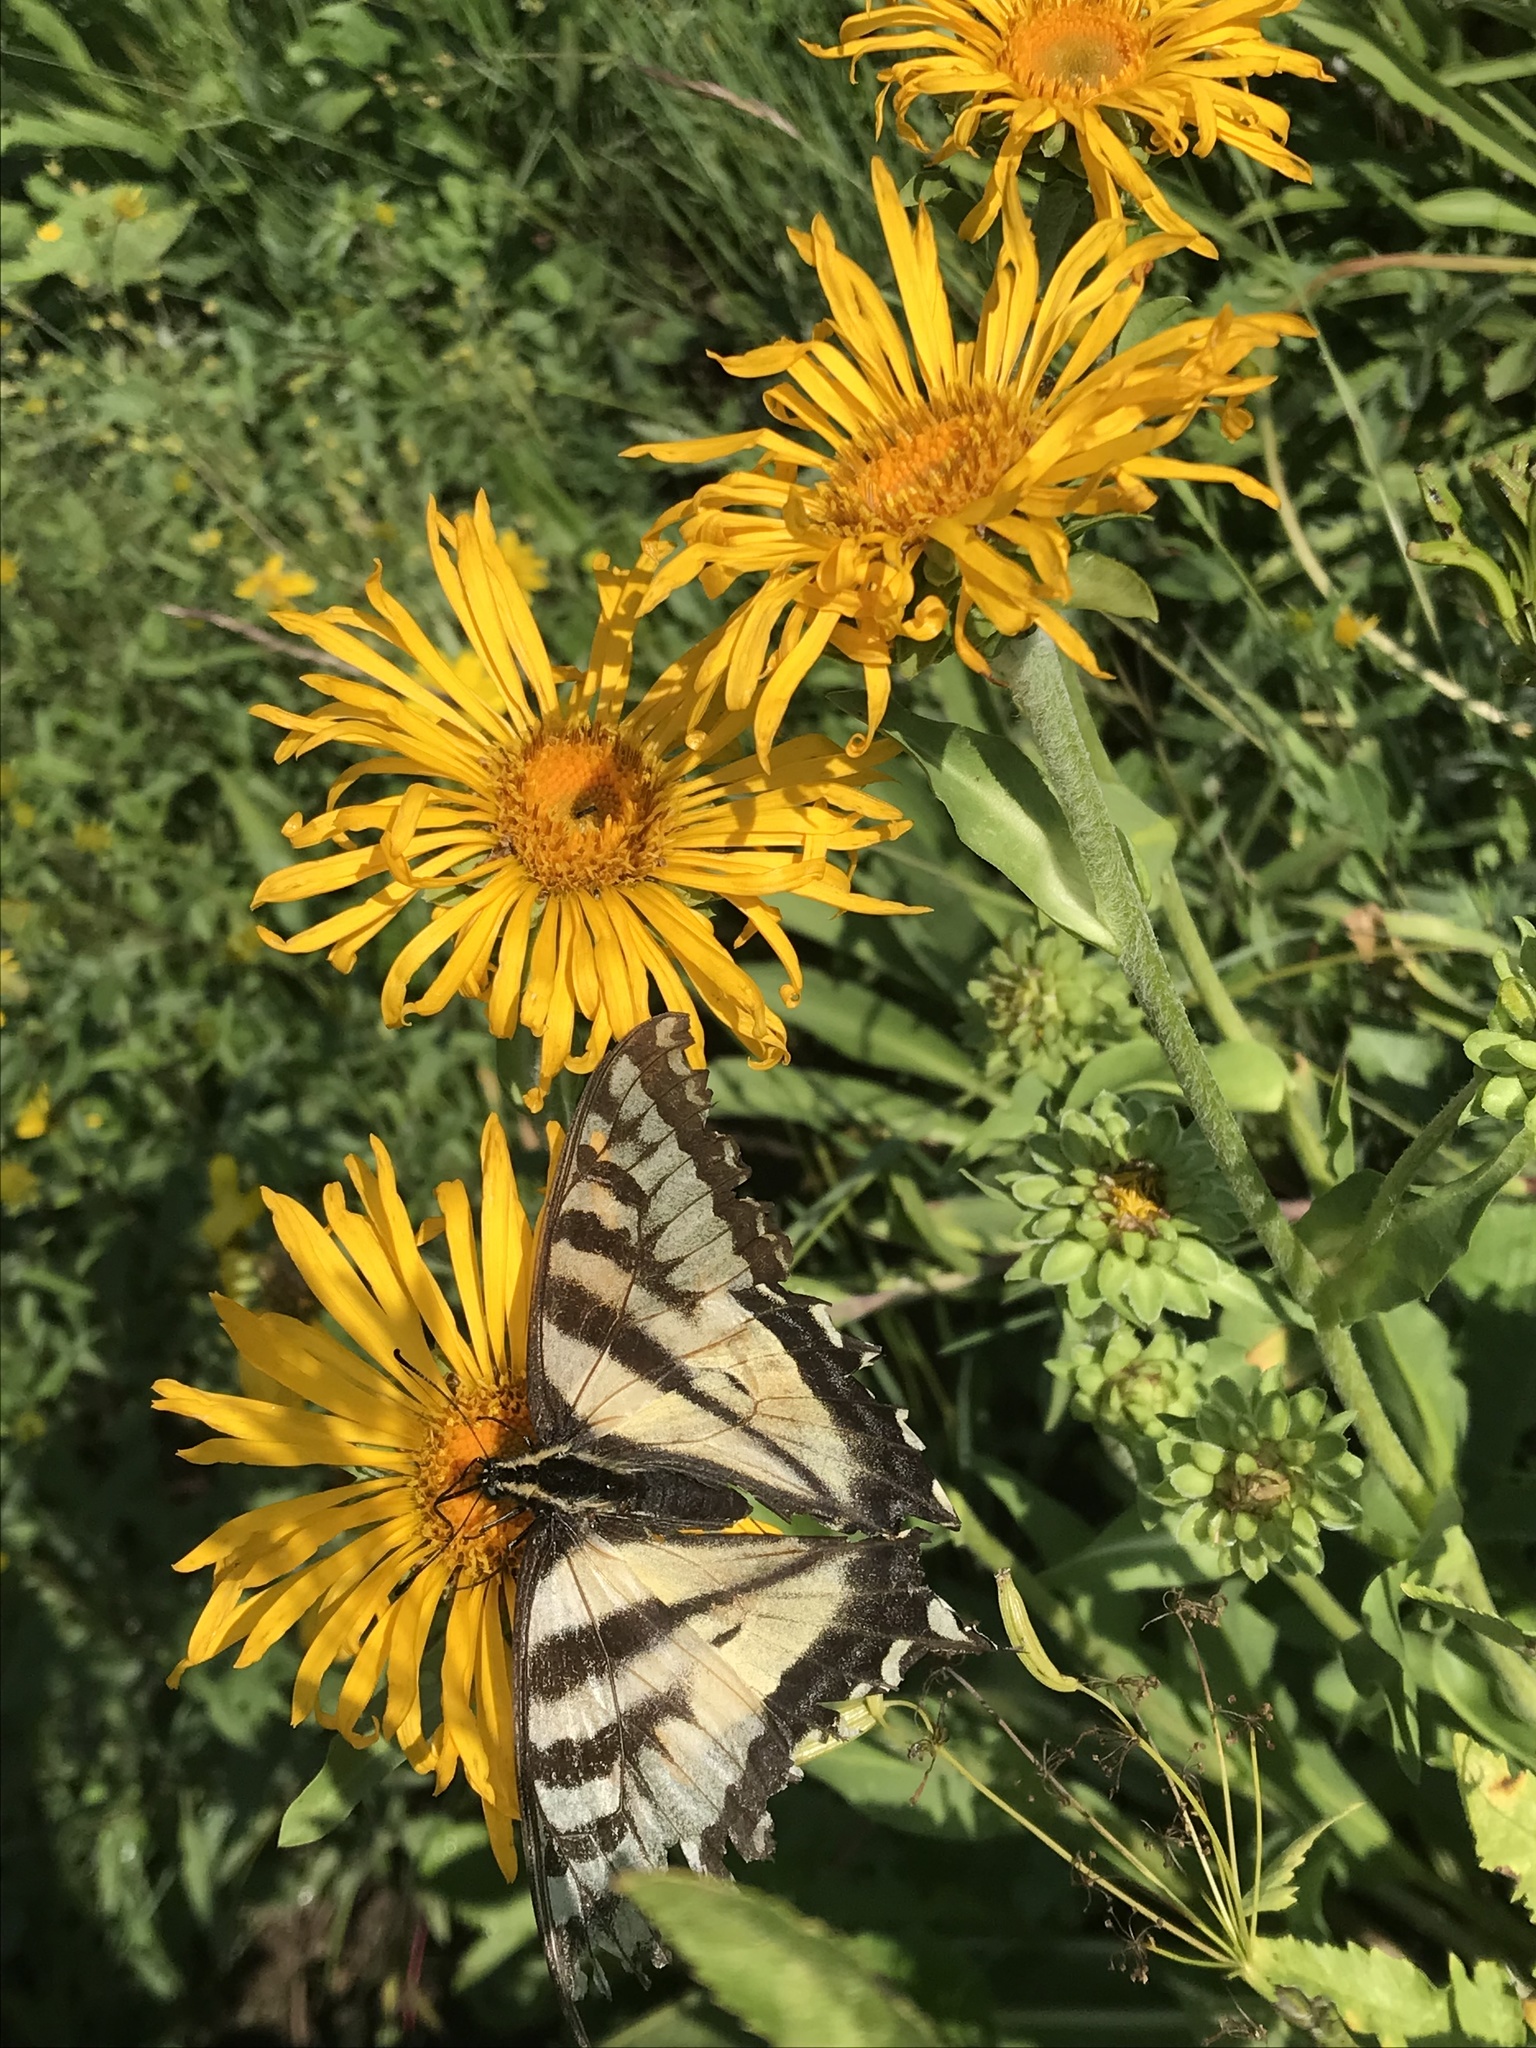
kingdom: Animalia
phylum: Arthropoda
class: Insecta
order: Lepidoptera
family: Papilionidae
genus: Papilio
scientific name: Papilio rutulus
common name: Western tiger swallowtail
